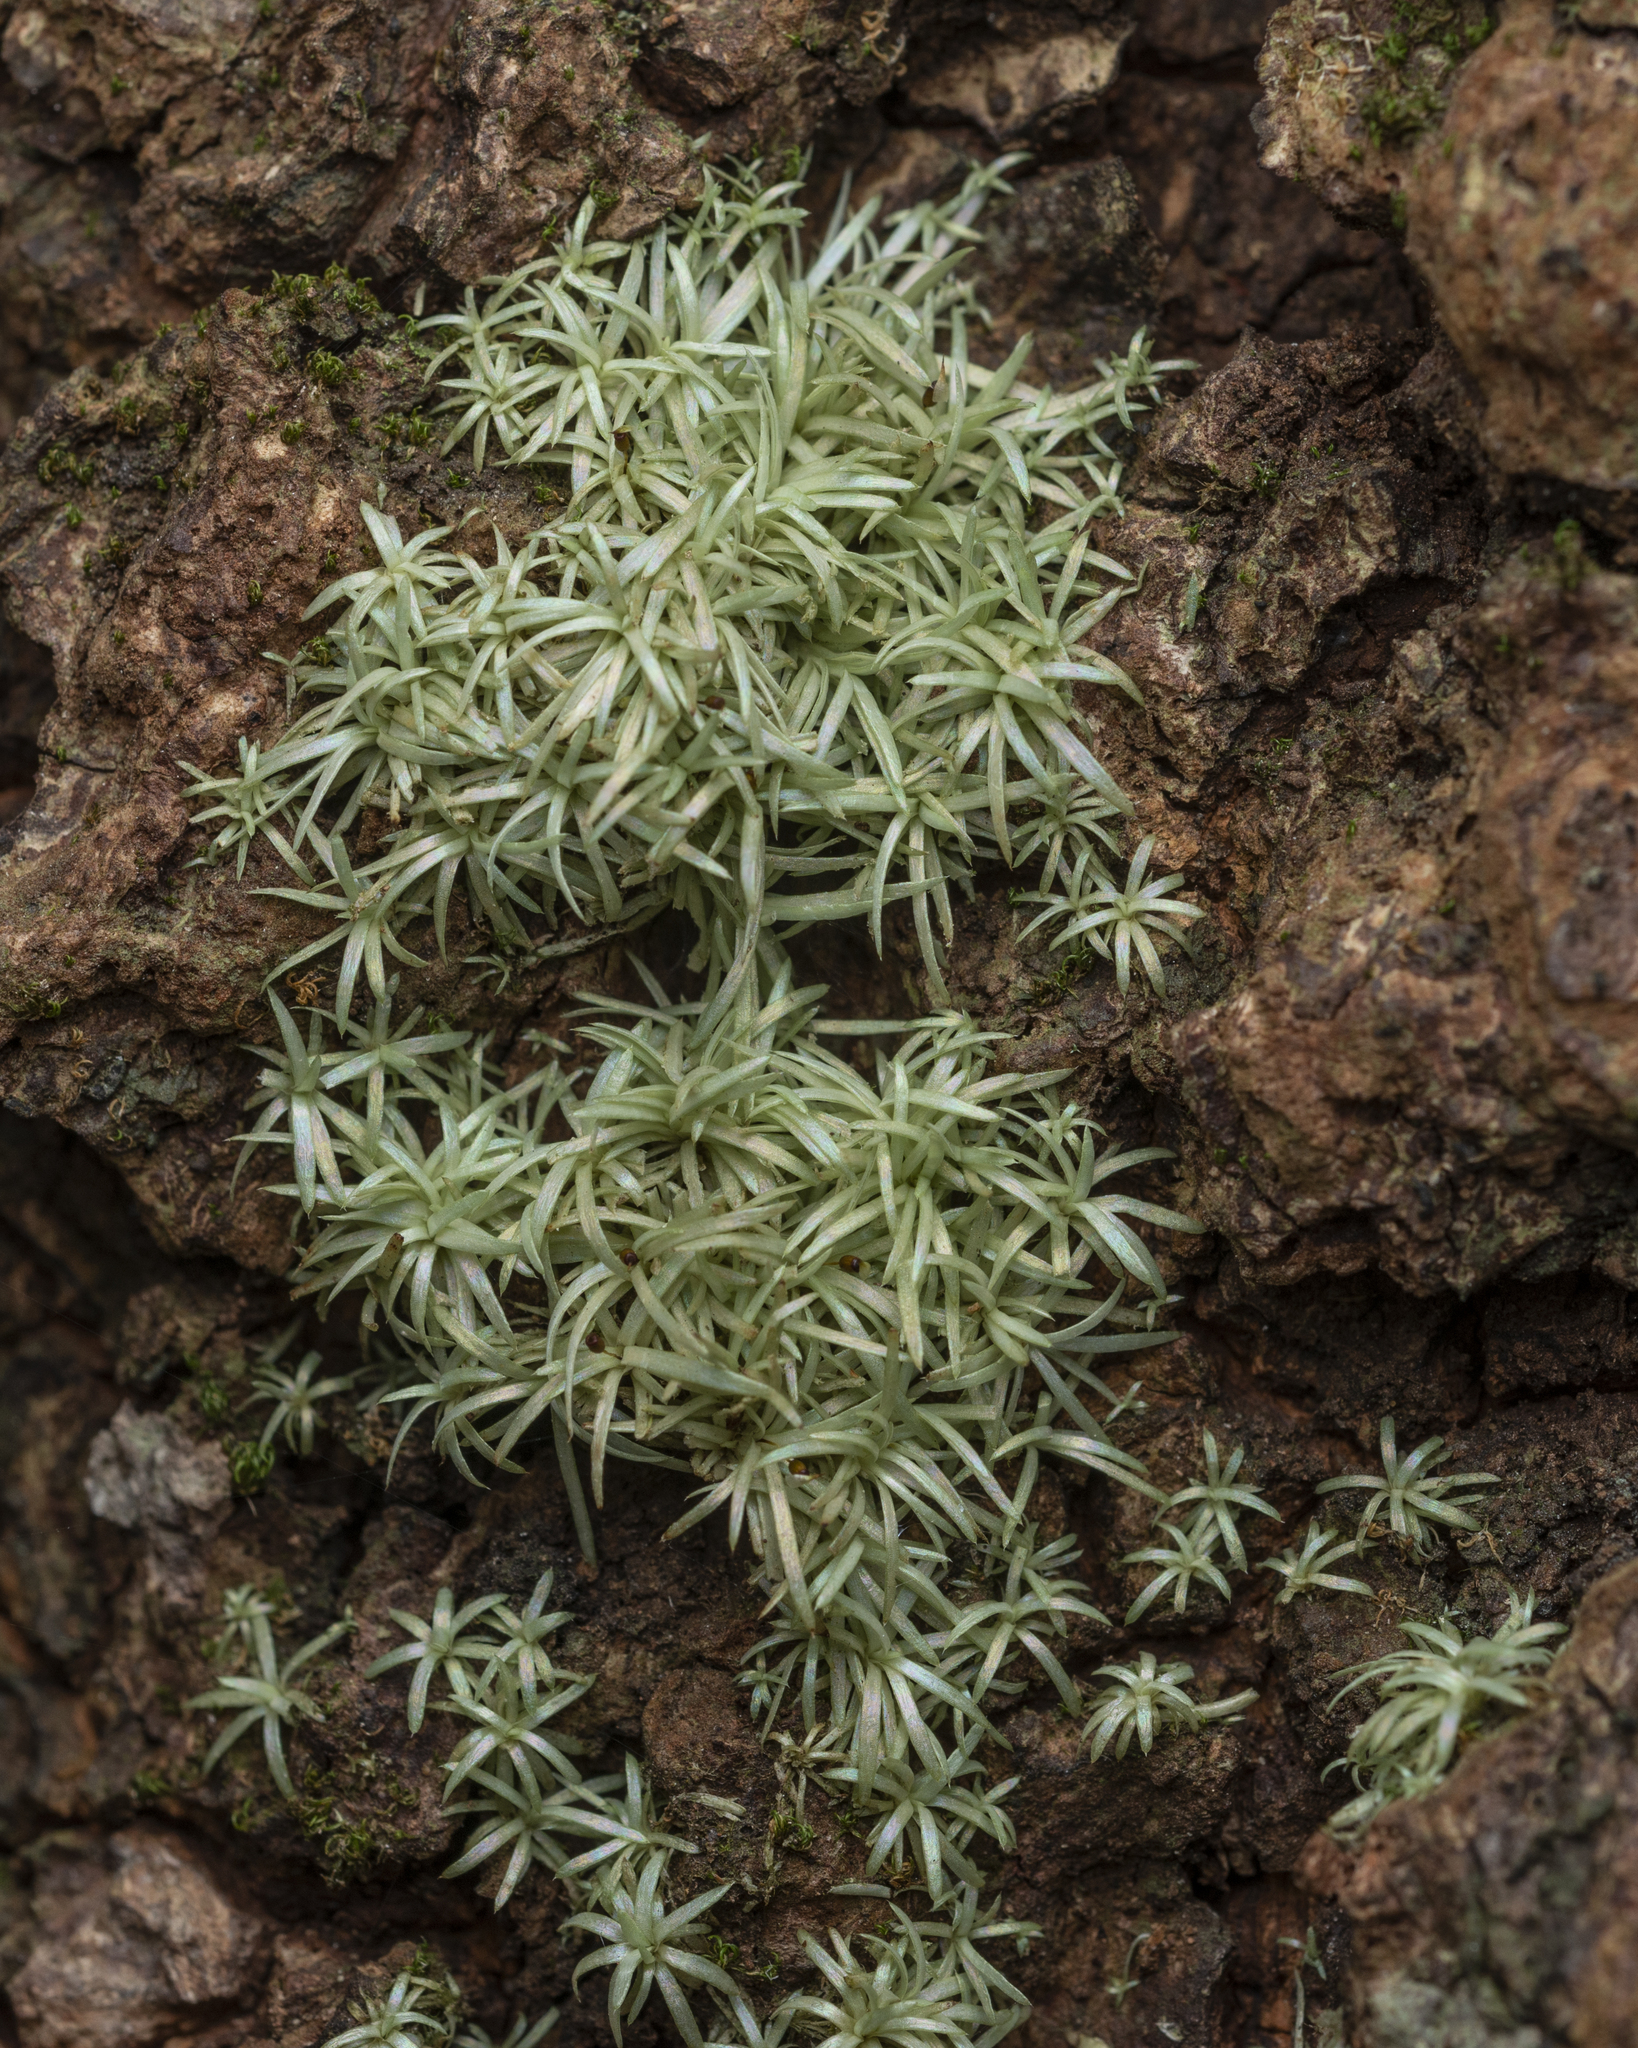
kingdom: Plantae
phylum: Bryophyta
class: Bryopsida
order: Dicranales
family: Octoblepharaceae
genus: Octoblepharum
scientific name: Octoblepharum albidum
